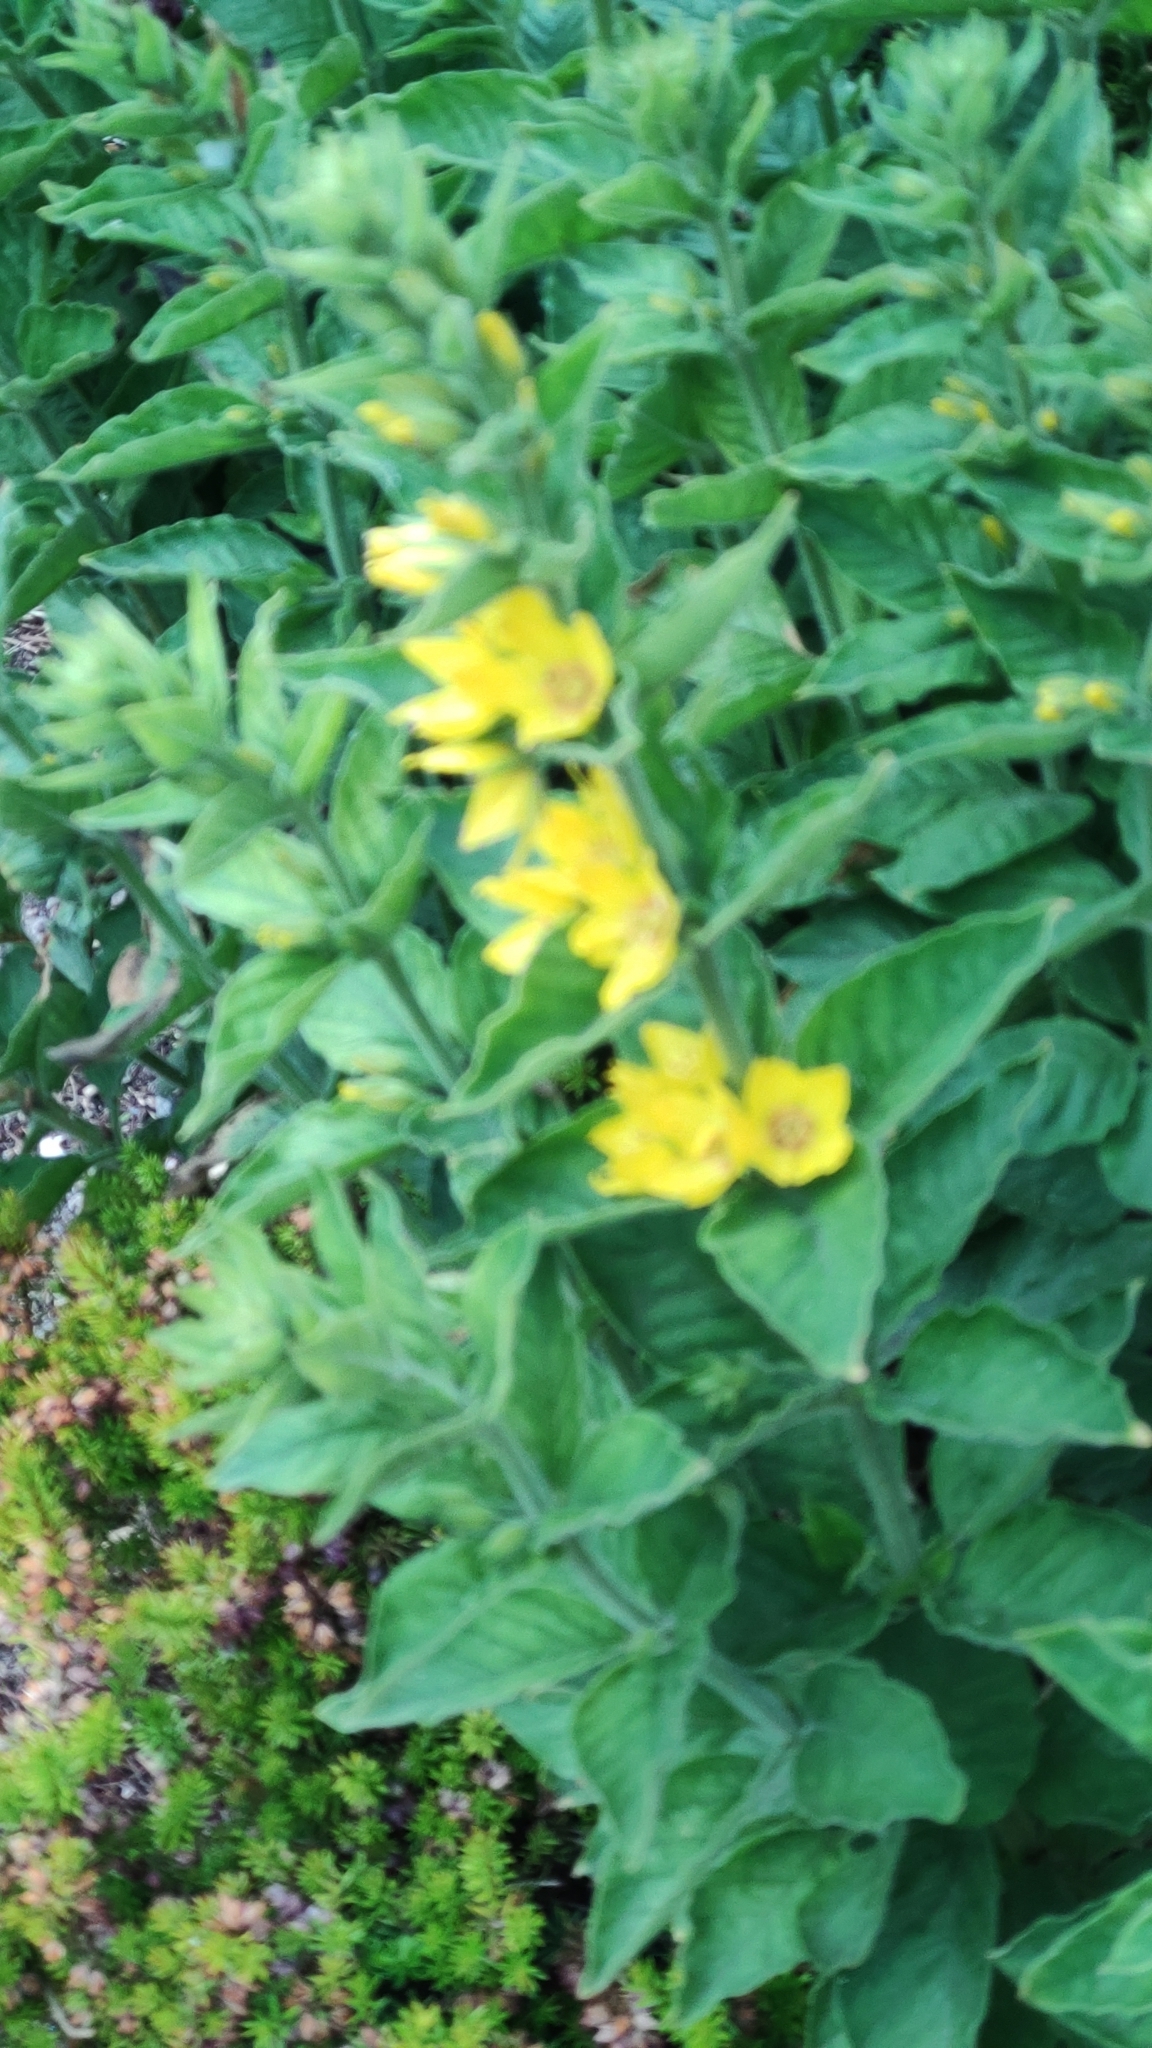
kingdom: Plantae
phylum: Tracheophyta
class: Magnoliopsida
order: Ericales
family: Primulaceae
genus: Lysimachia
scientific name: Lysimachia punctata
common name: Dotted loosestrife
